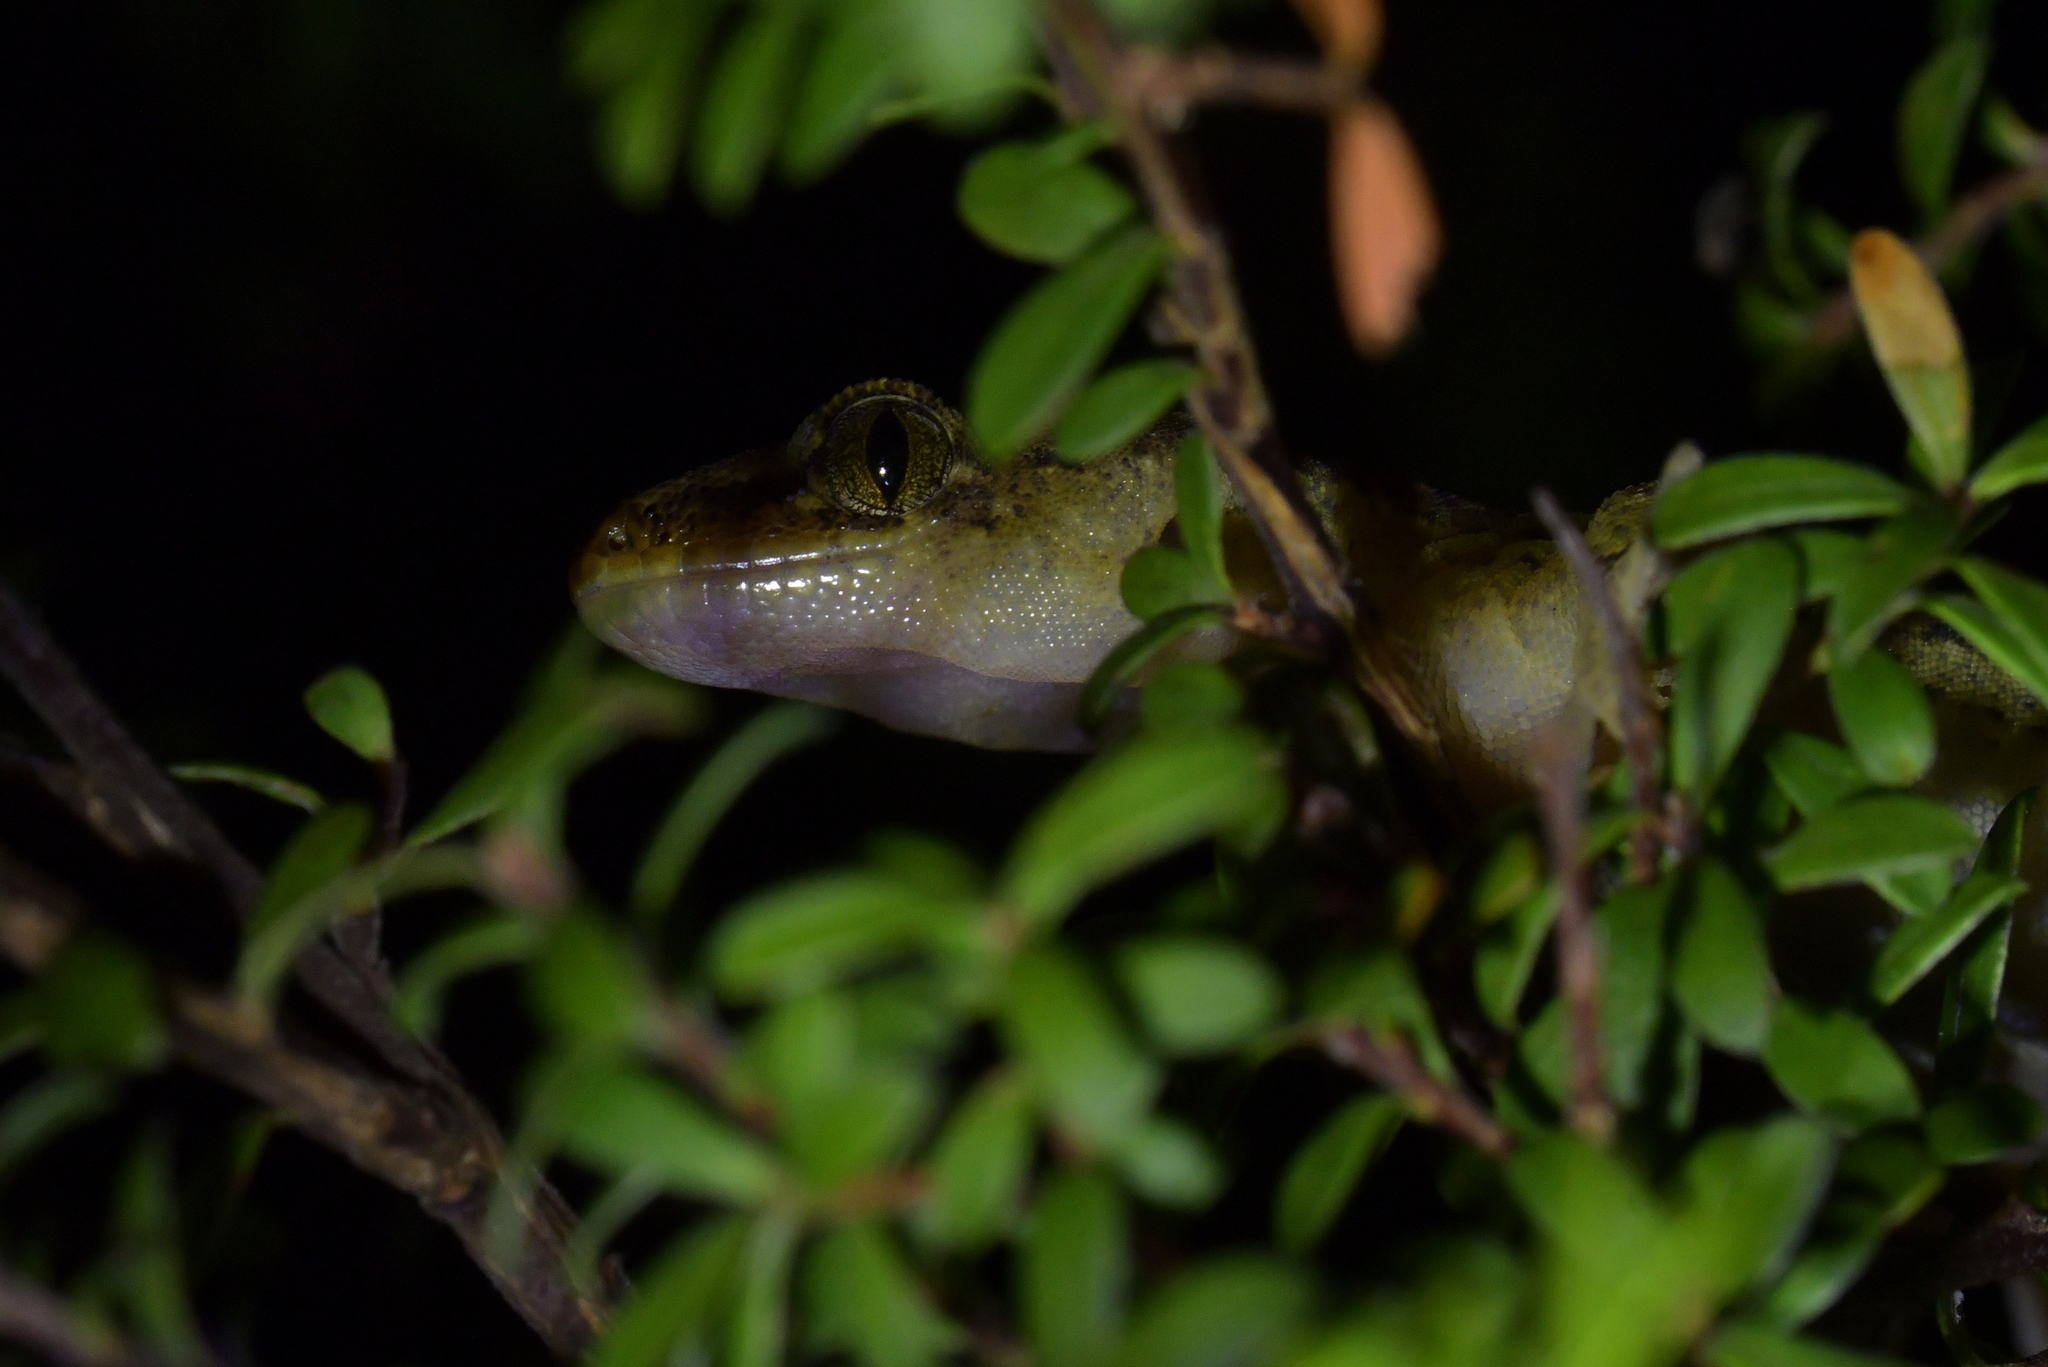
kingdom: Animalia
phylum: Chordata
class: Squamata
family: Diplodactylidae
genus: Woodworthia
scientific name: Woodworthia maculata
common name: Raukawa gecko
